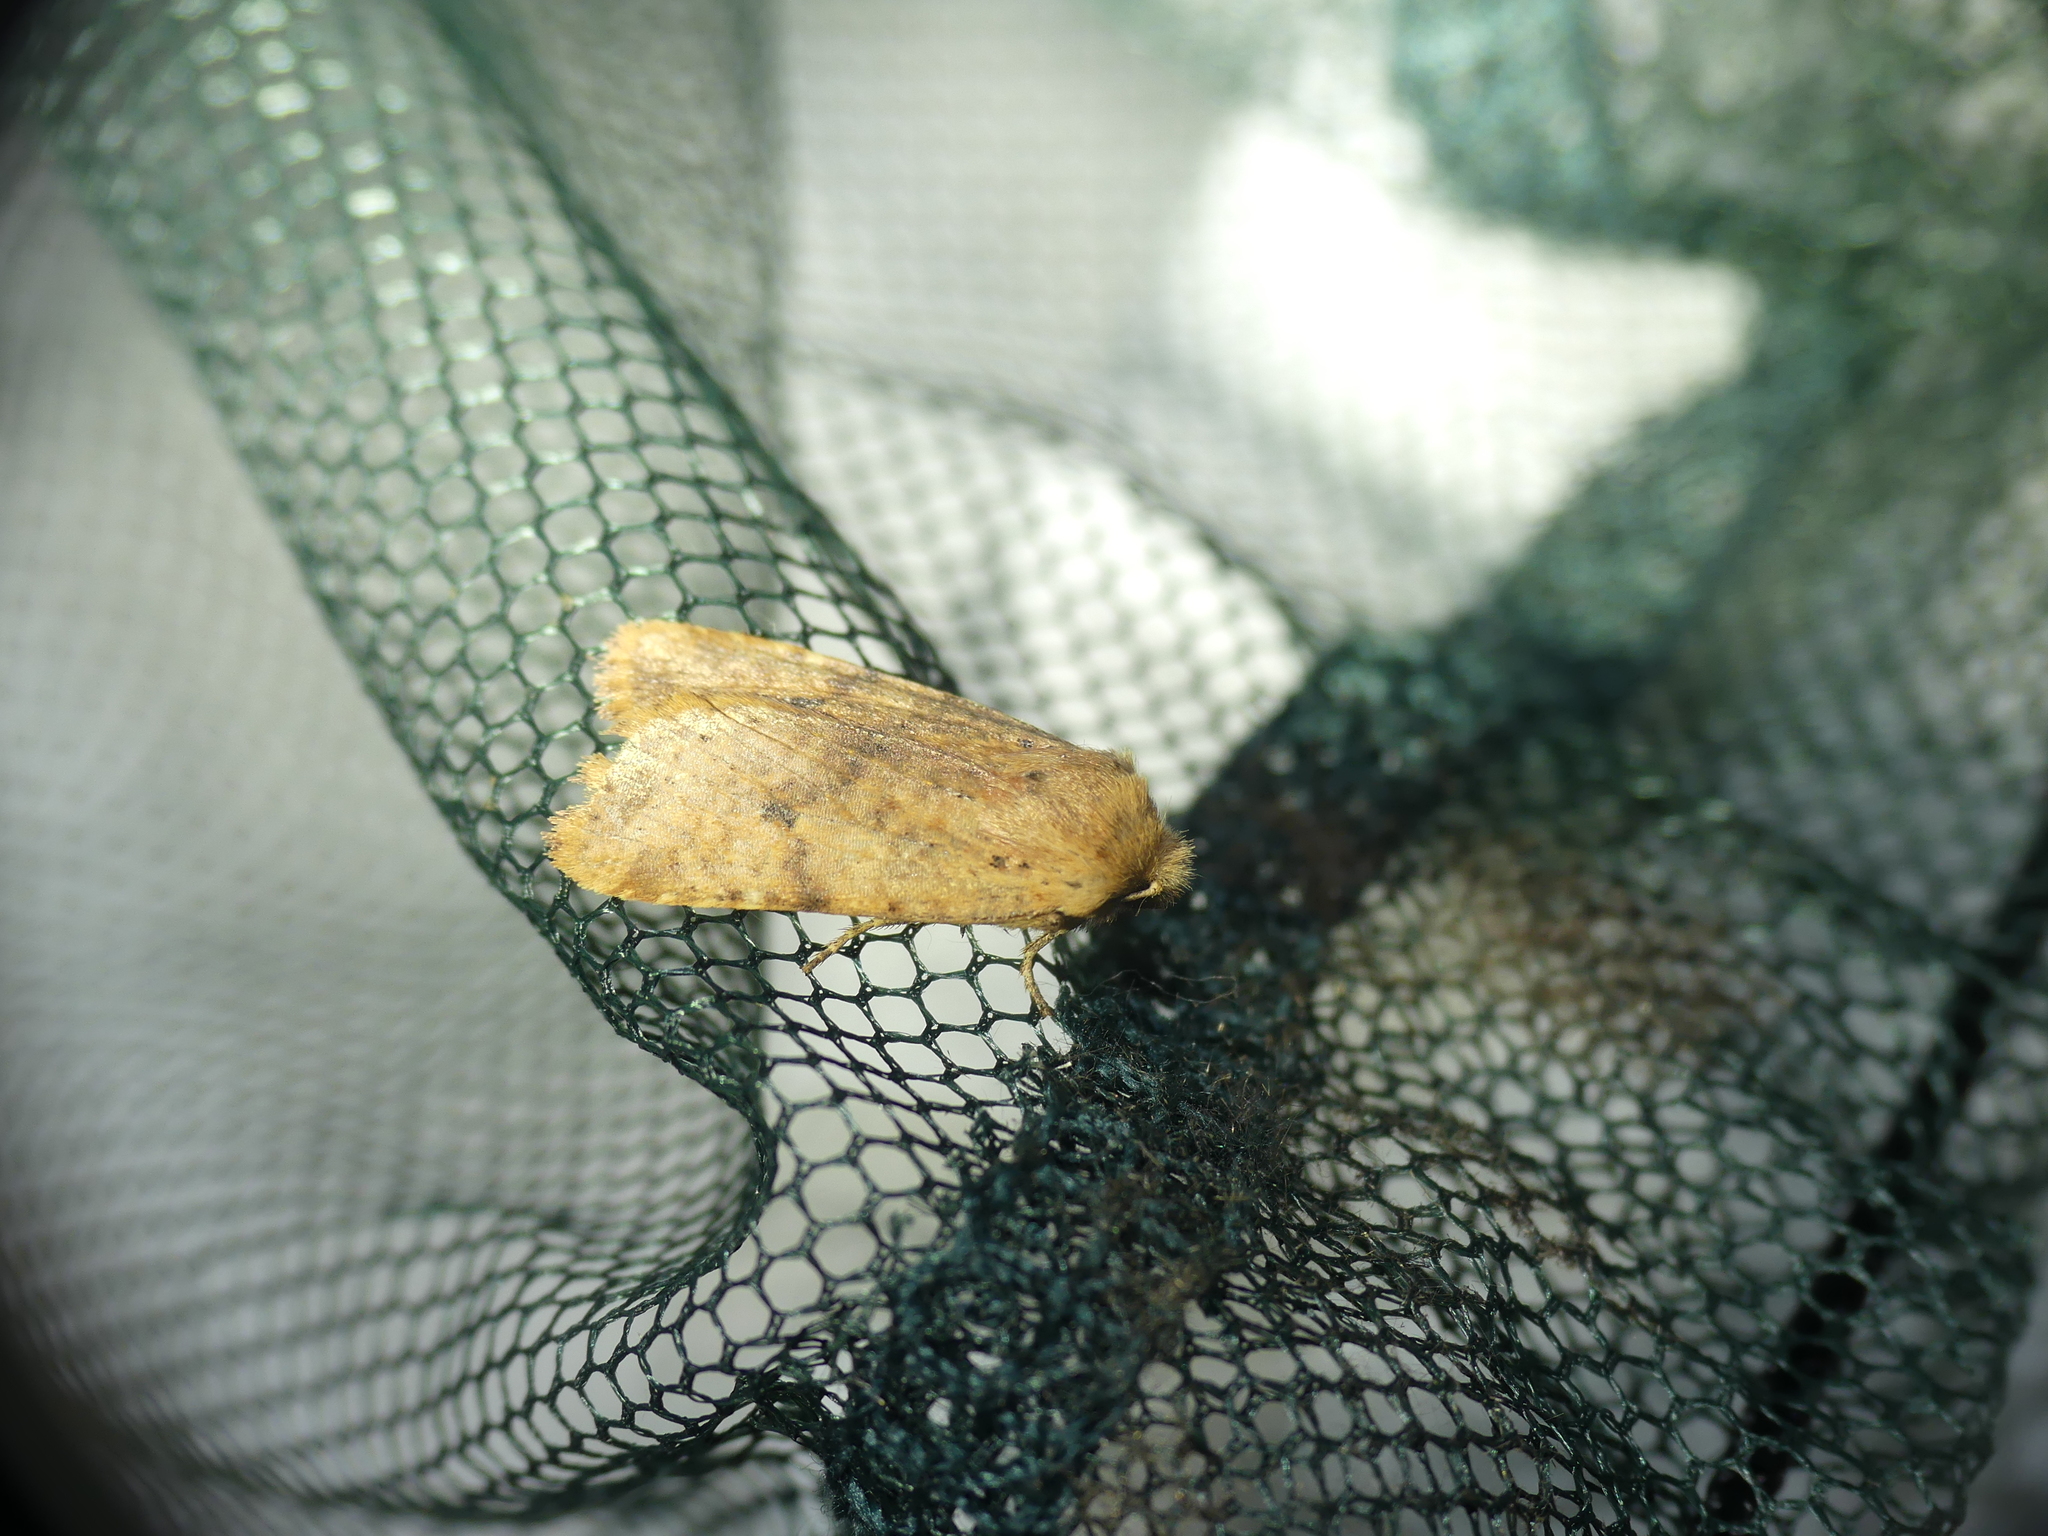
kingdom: Animalia
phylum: Arthropoda
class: Insecta
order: Lepidoptera
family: Noctuidae
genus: Conistra
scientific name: Conistra rubiginea
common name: Dotted chestnut
